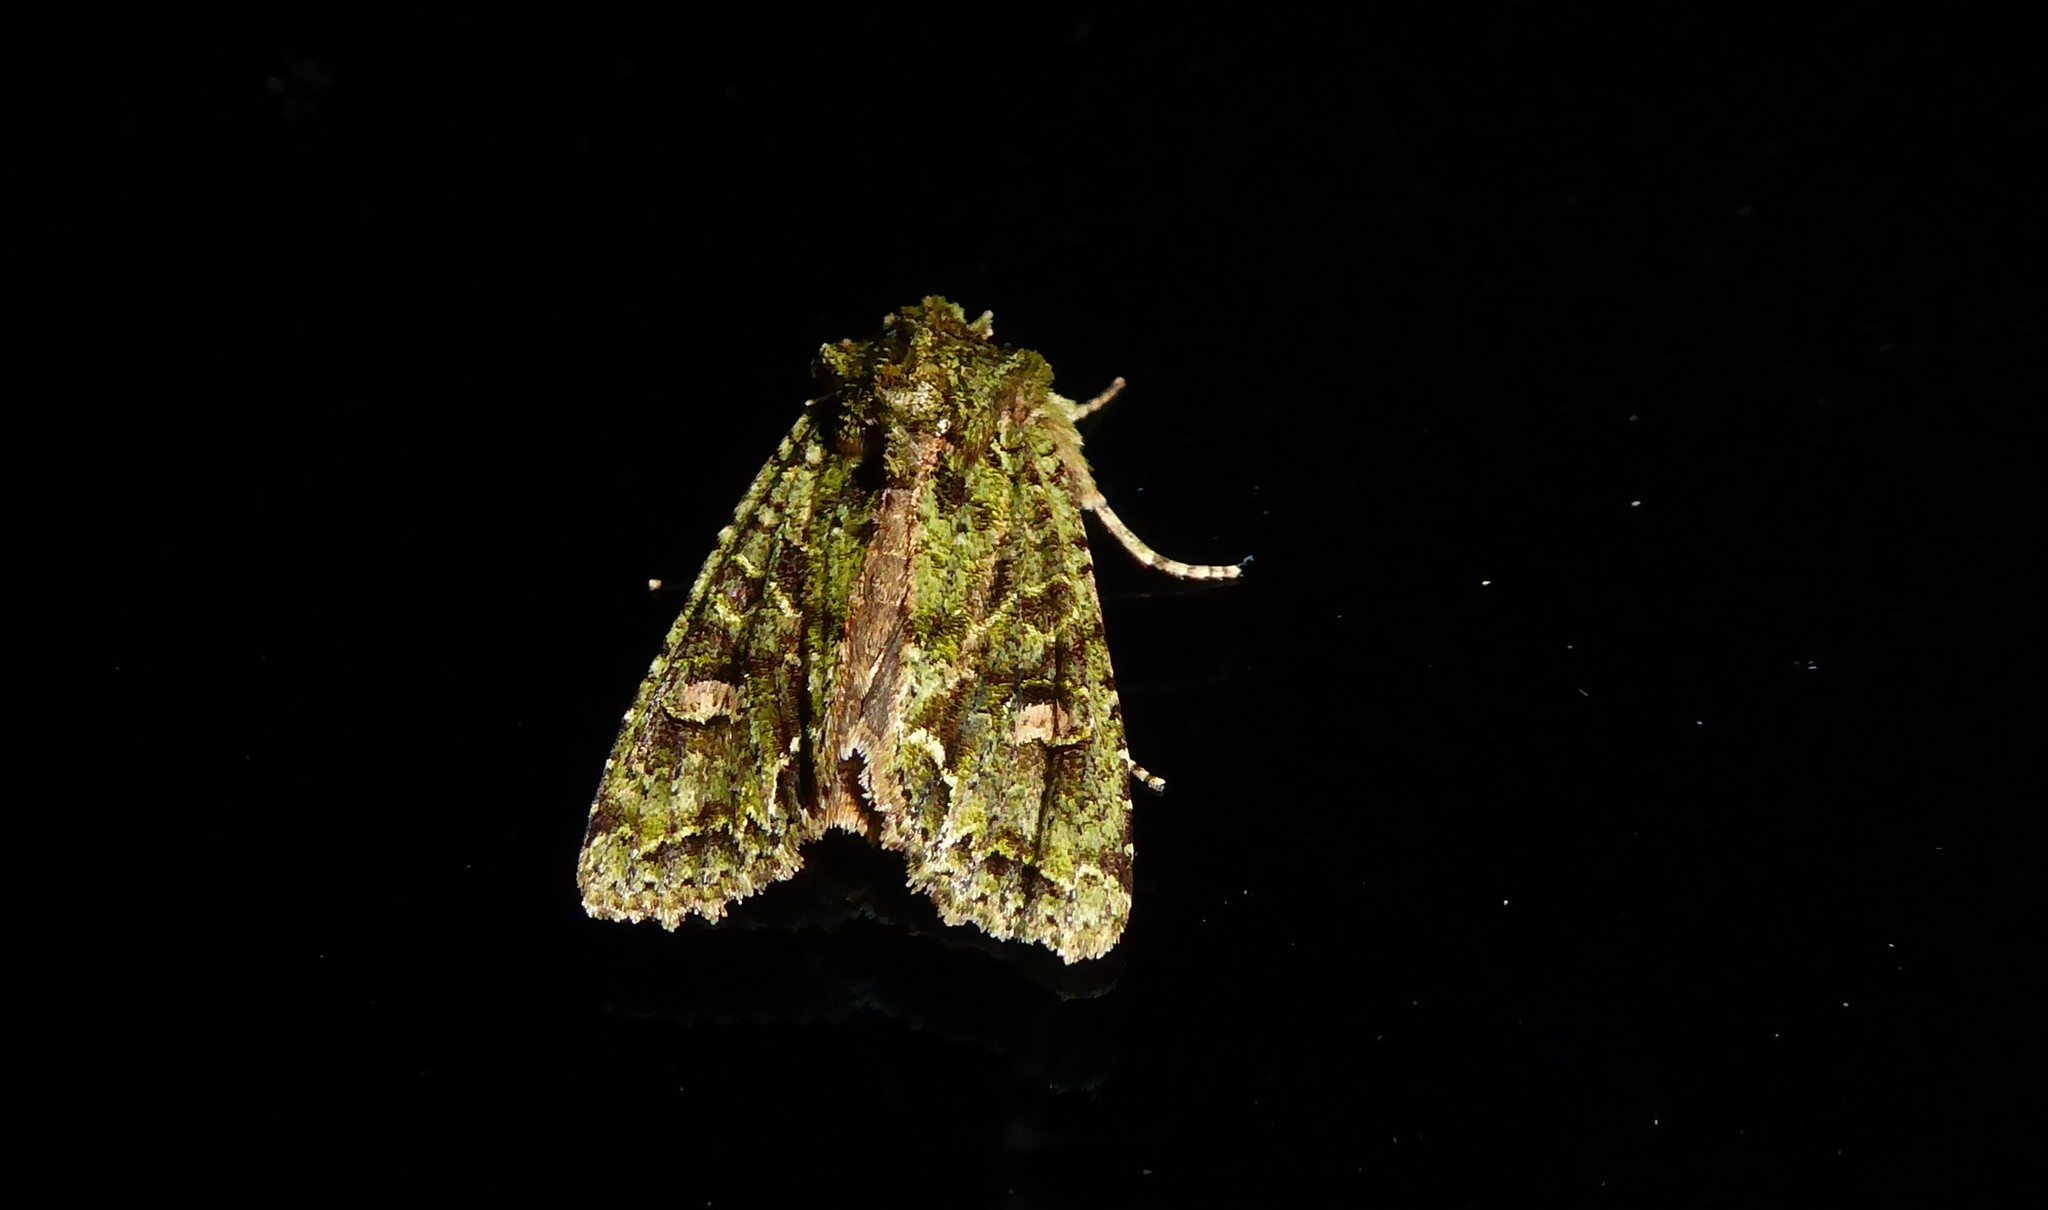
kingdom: Animalia
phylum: Arthropoda
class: Insecta
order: Lepidoptera
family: Noctuidae
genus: Ichneutica
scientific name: Ichneutica
